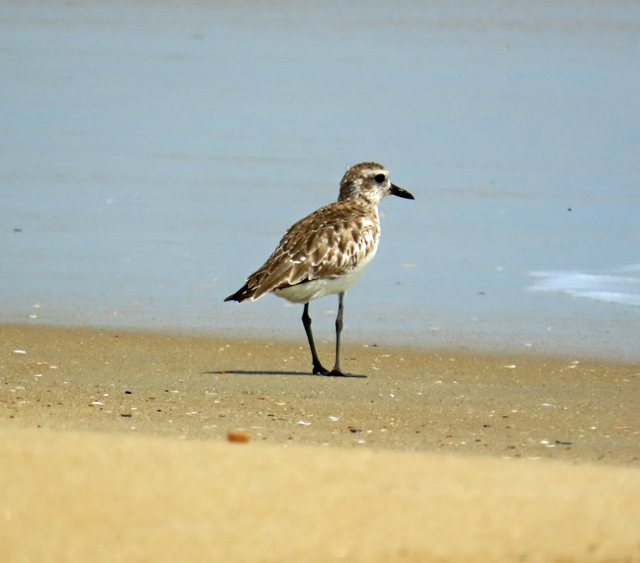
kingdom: Animalia
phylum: Chordata
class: Aves
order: Charadriiformes
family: Charadriidae
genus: Pluvialis
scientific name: Pluvialis squatarola
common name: Grey plover
